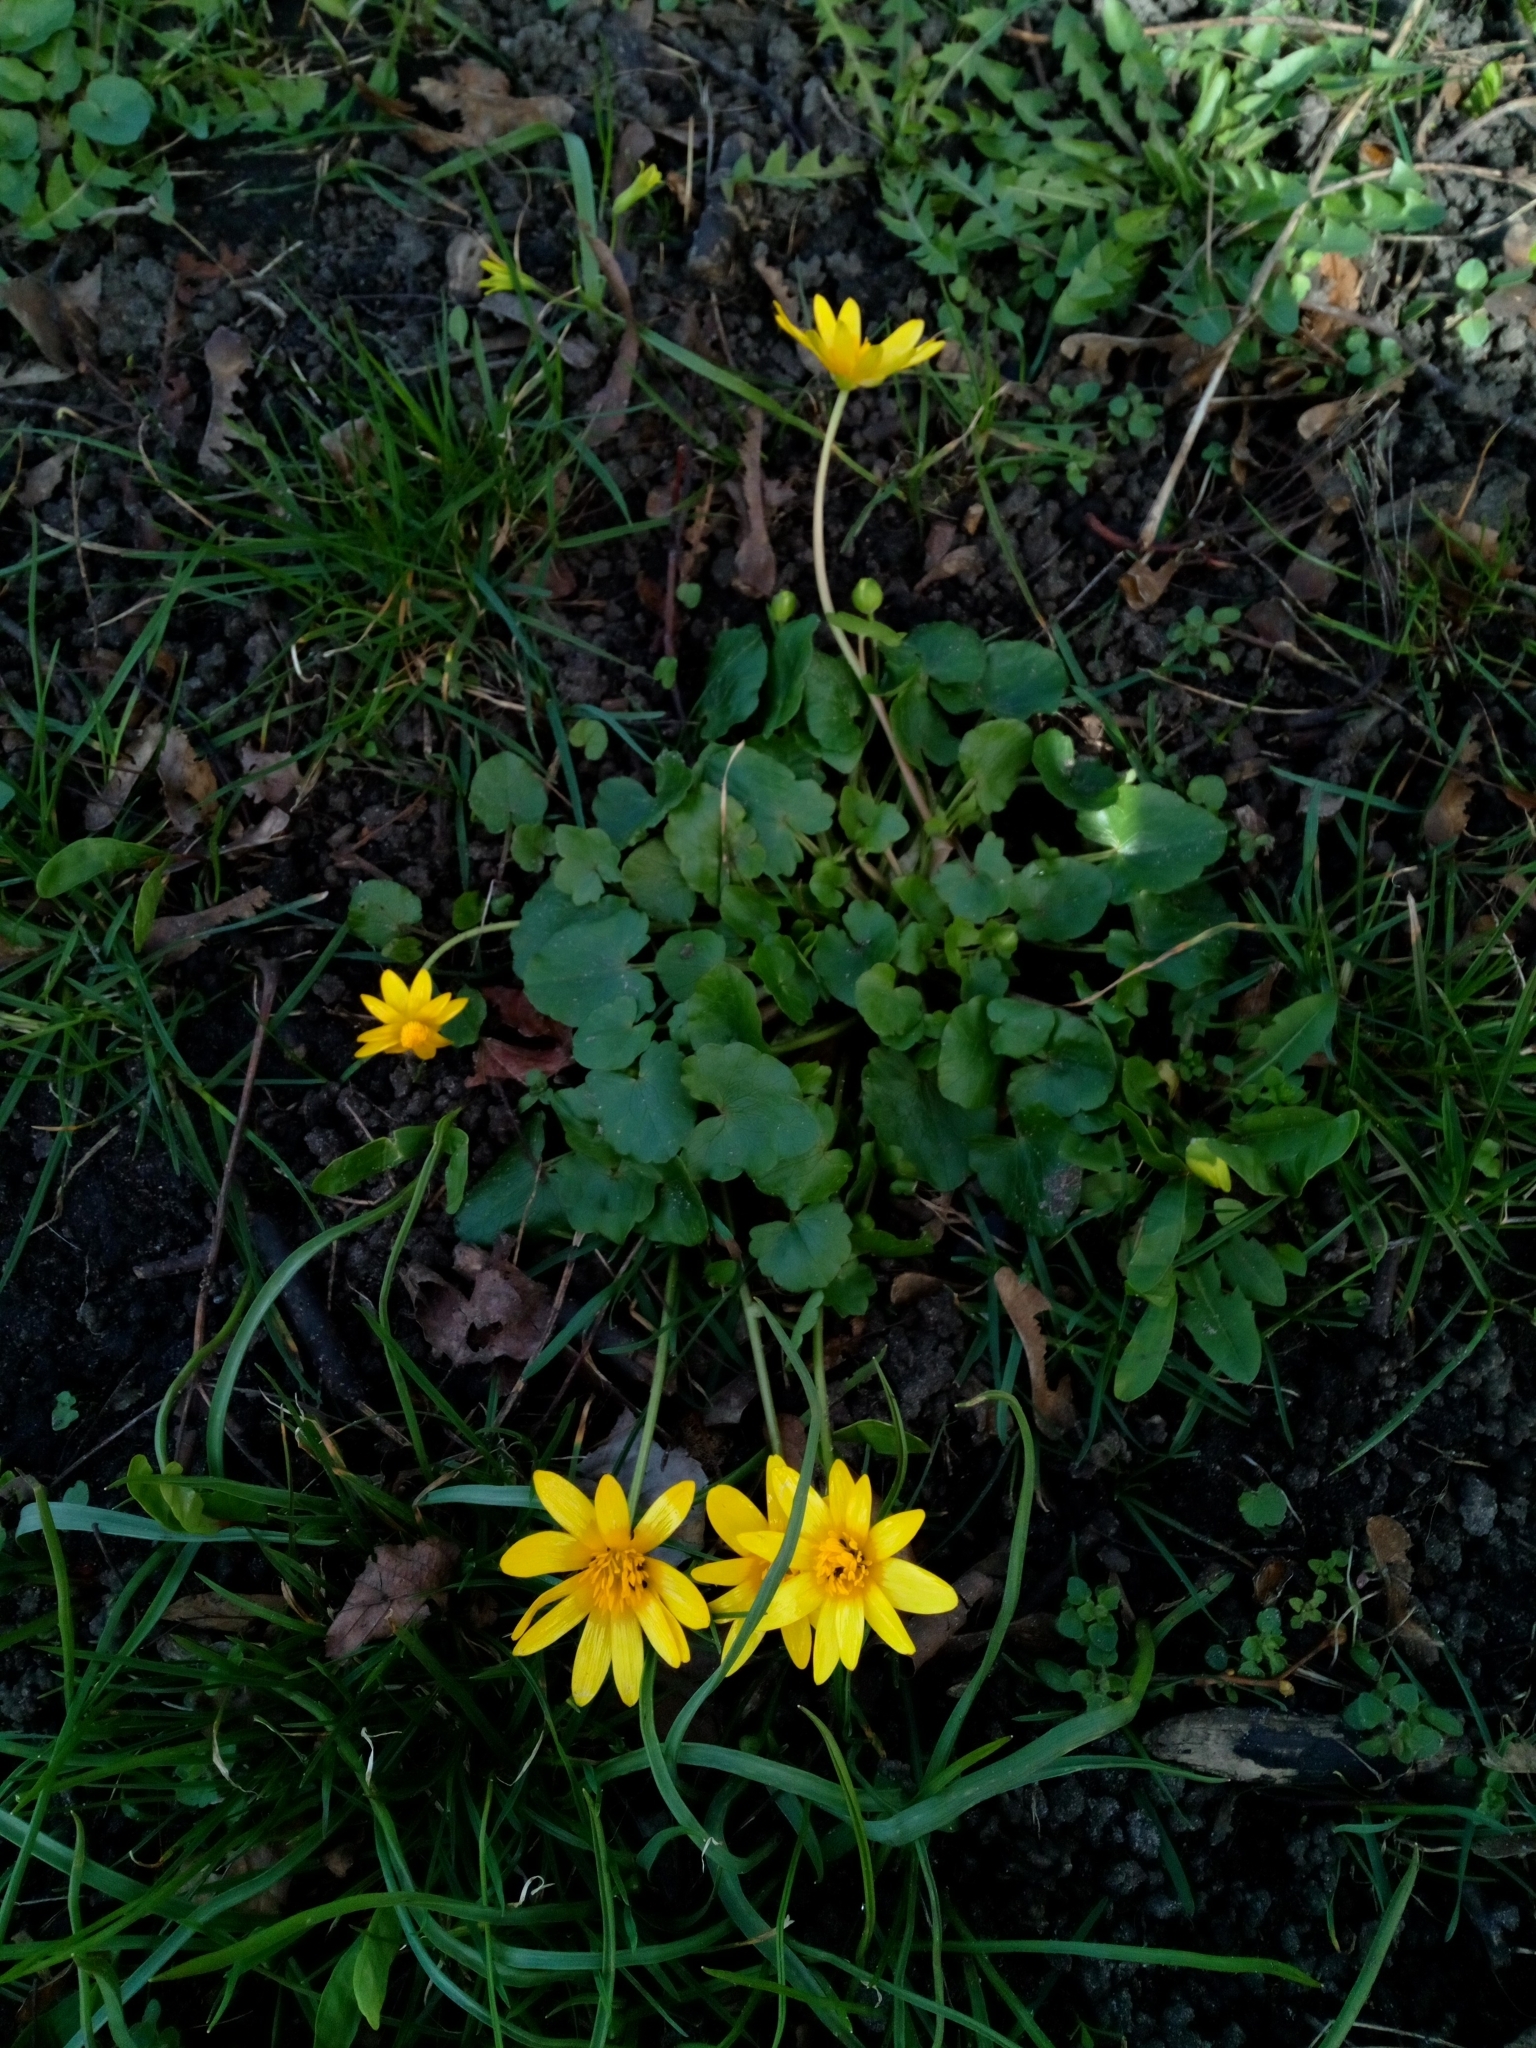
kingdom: Plantae
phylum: Tracheophyta
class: Magnoliopsida
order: Ranunculales
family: Ranunculaceae
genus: Ficaria
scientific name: Ficaria verna
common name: Lesser celandine
